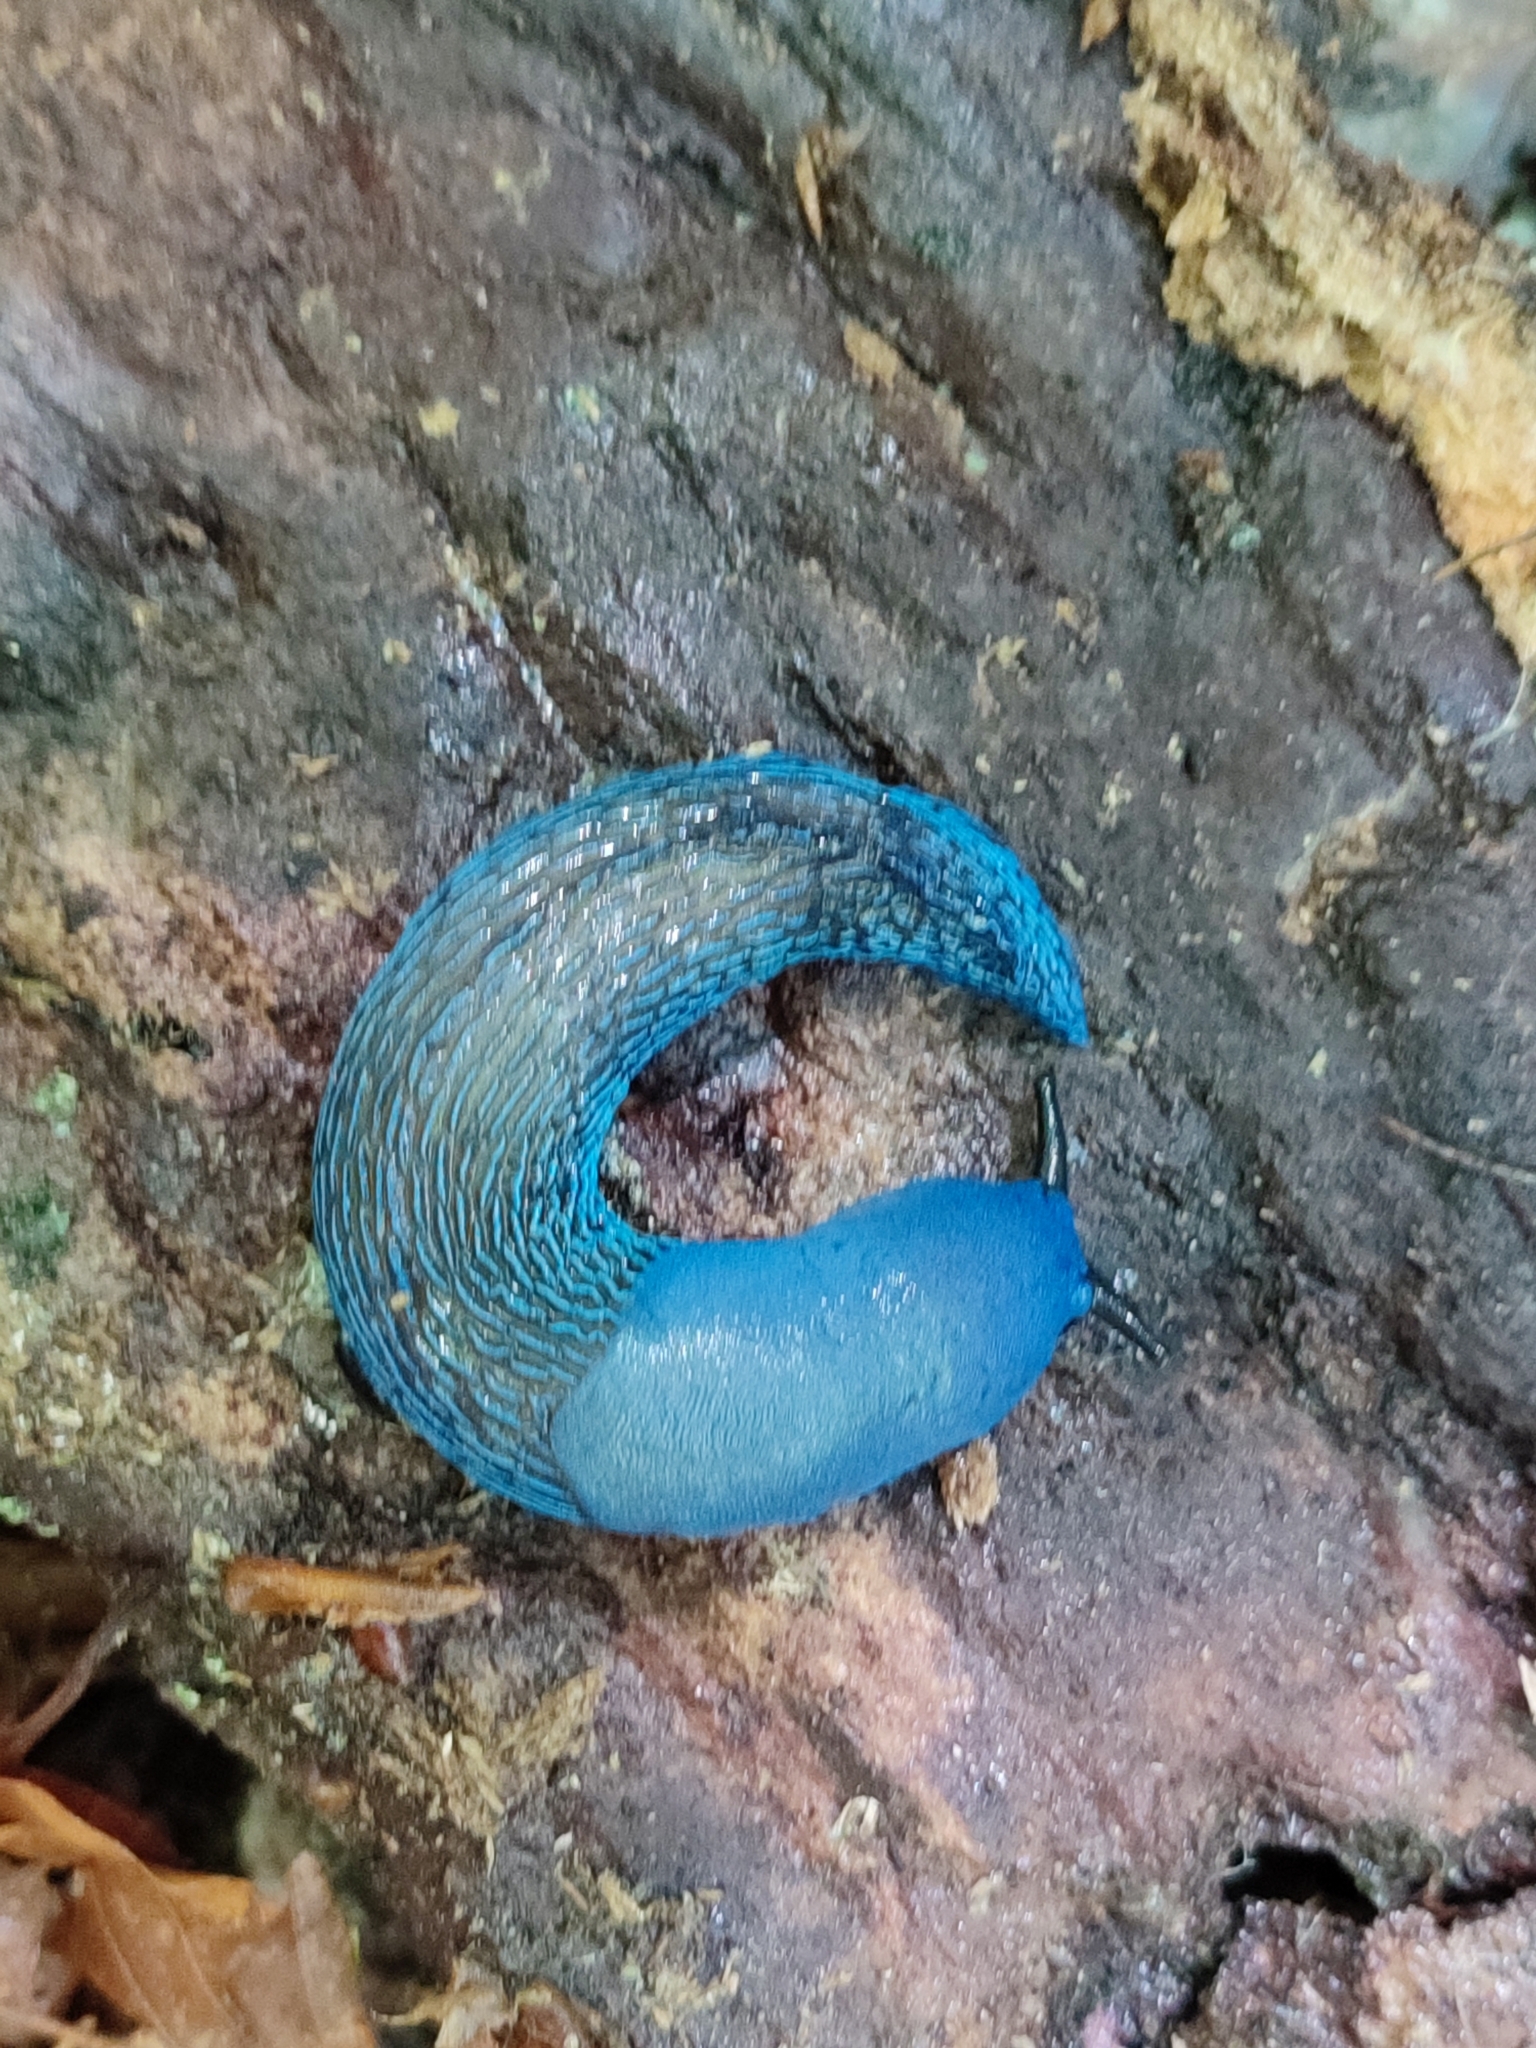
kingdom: Animalia
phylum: Mollusca
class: Gastropoda
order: Stylommatophora
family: Limacidae
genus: Bielzia
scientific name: Bielzia coerulans
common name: Carpathian blue slug
